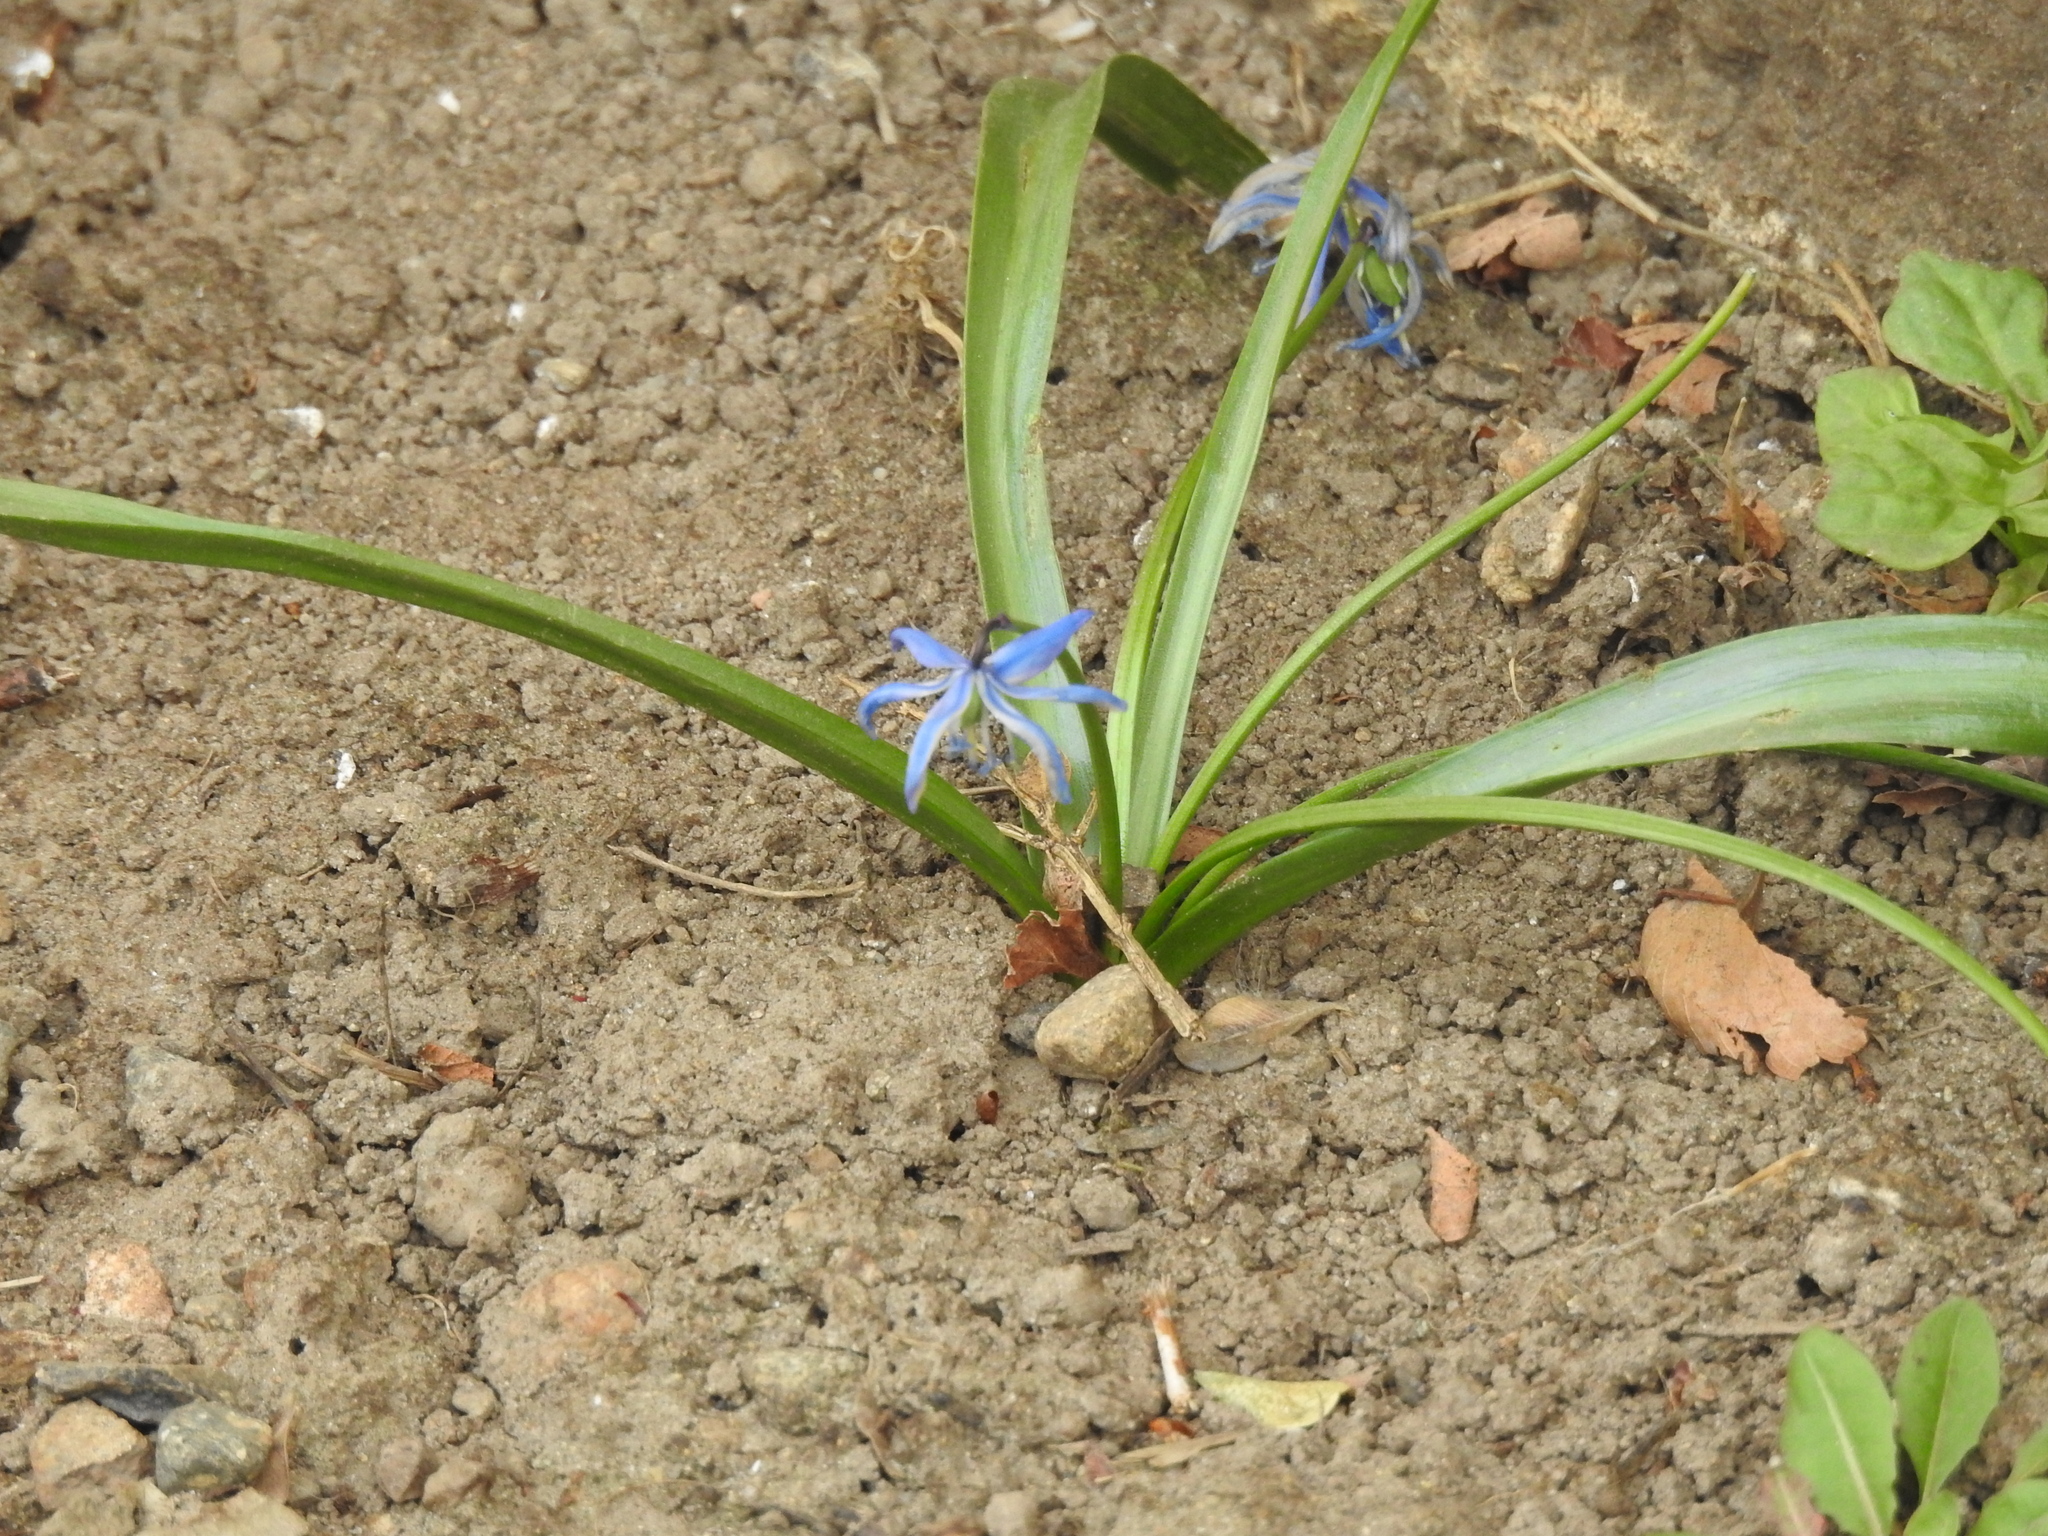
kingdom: Plantae
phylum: Tracheophyta
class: Liliopsida
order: Asparagales
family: Asparagaceae
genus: Scilla
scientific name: Scilla siberica
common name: Siberian squill
